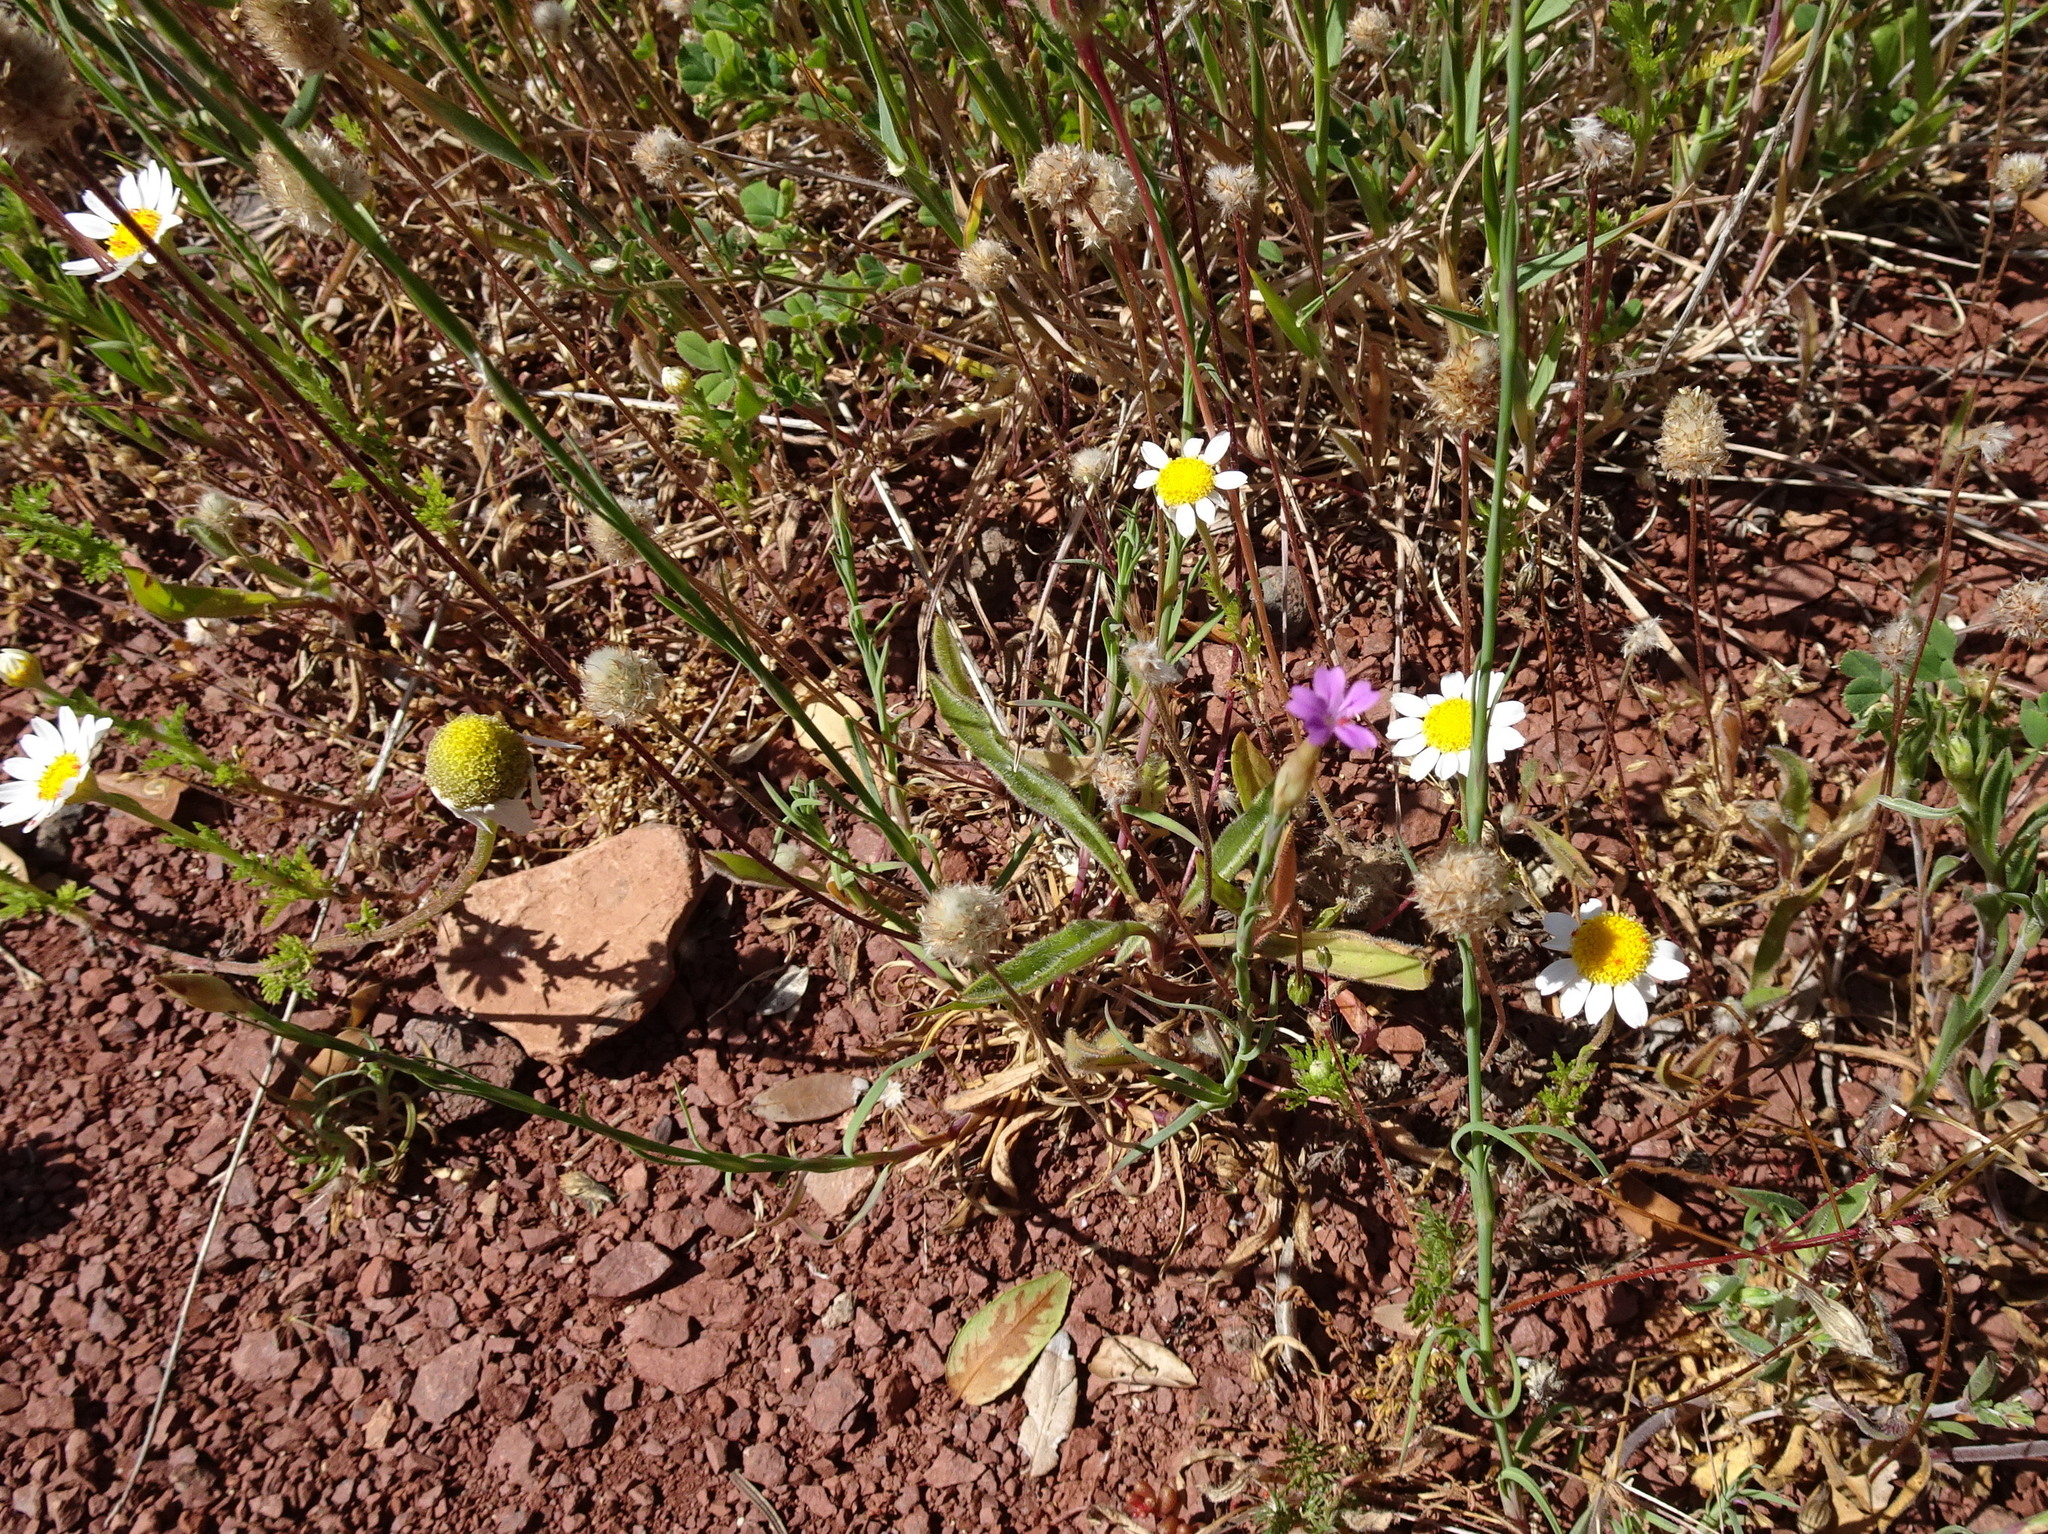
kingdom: Plantae
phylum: Tracheophyta
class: Magnoliopsida
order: Caryophyllales
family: Caryophyllaceae
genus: Petrorhagia
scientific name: Petrorhagia prolifera
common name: Proliferous pink
